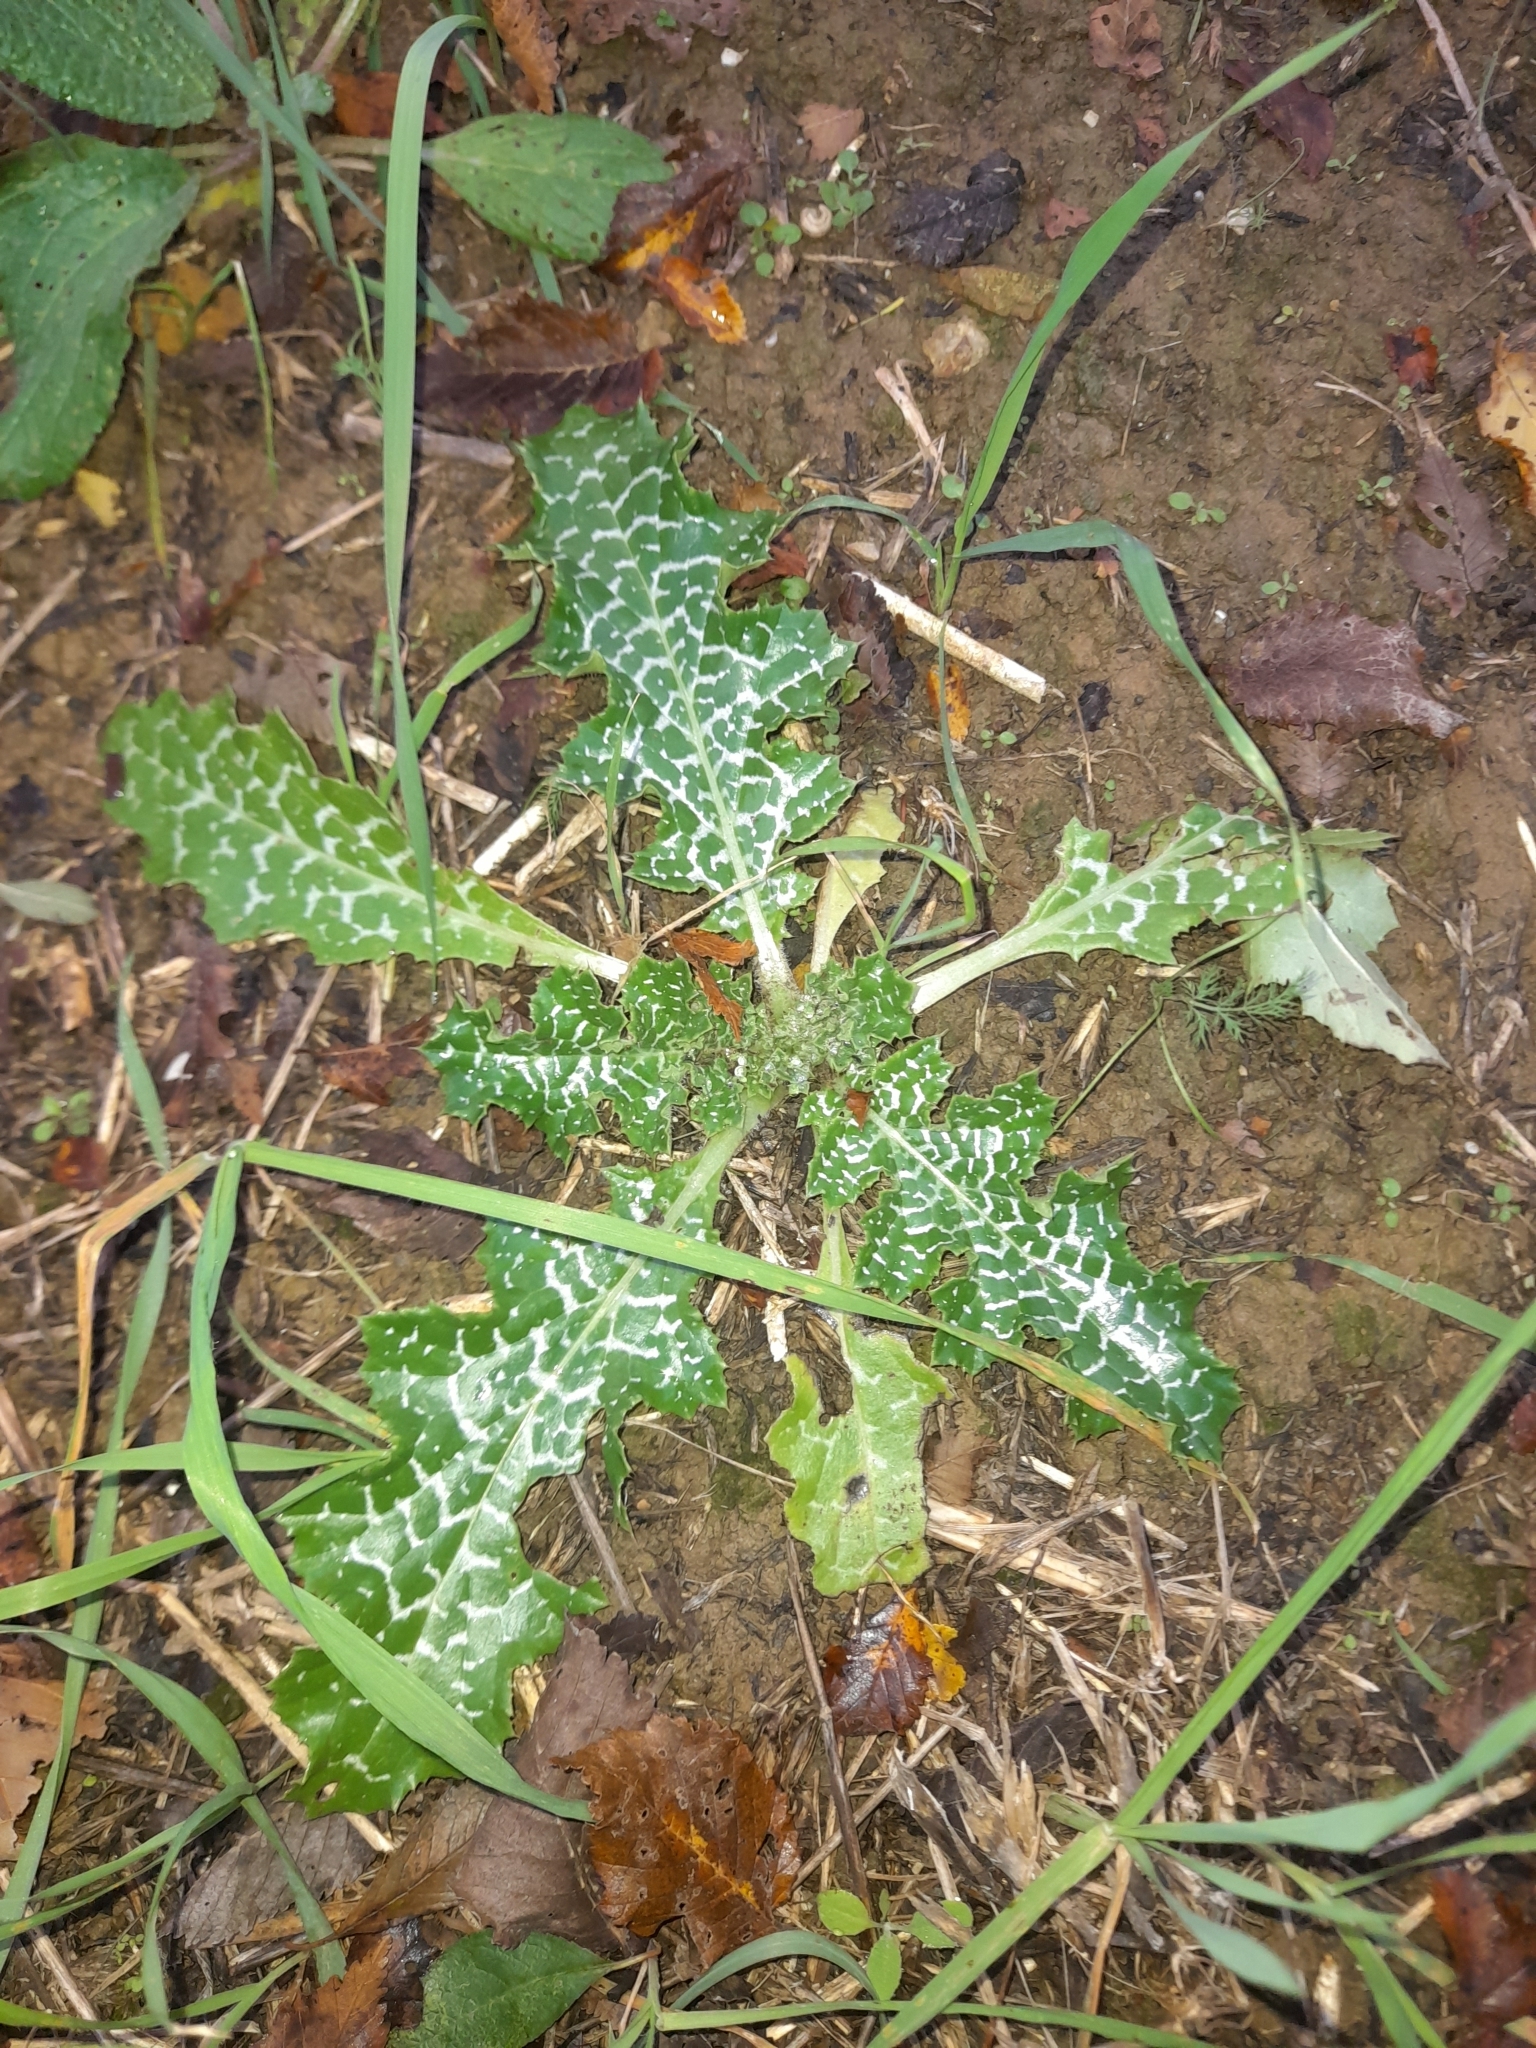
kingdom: Plantae
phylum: Tracheophyta
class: Magnoliopsida
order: Asterales
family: Asteraceae
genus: Silybum
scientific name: Silybum marianum
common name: Milk thistle
